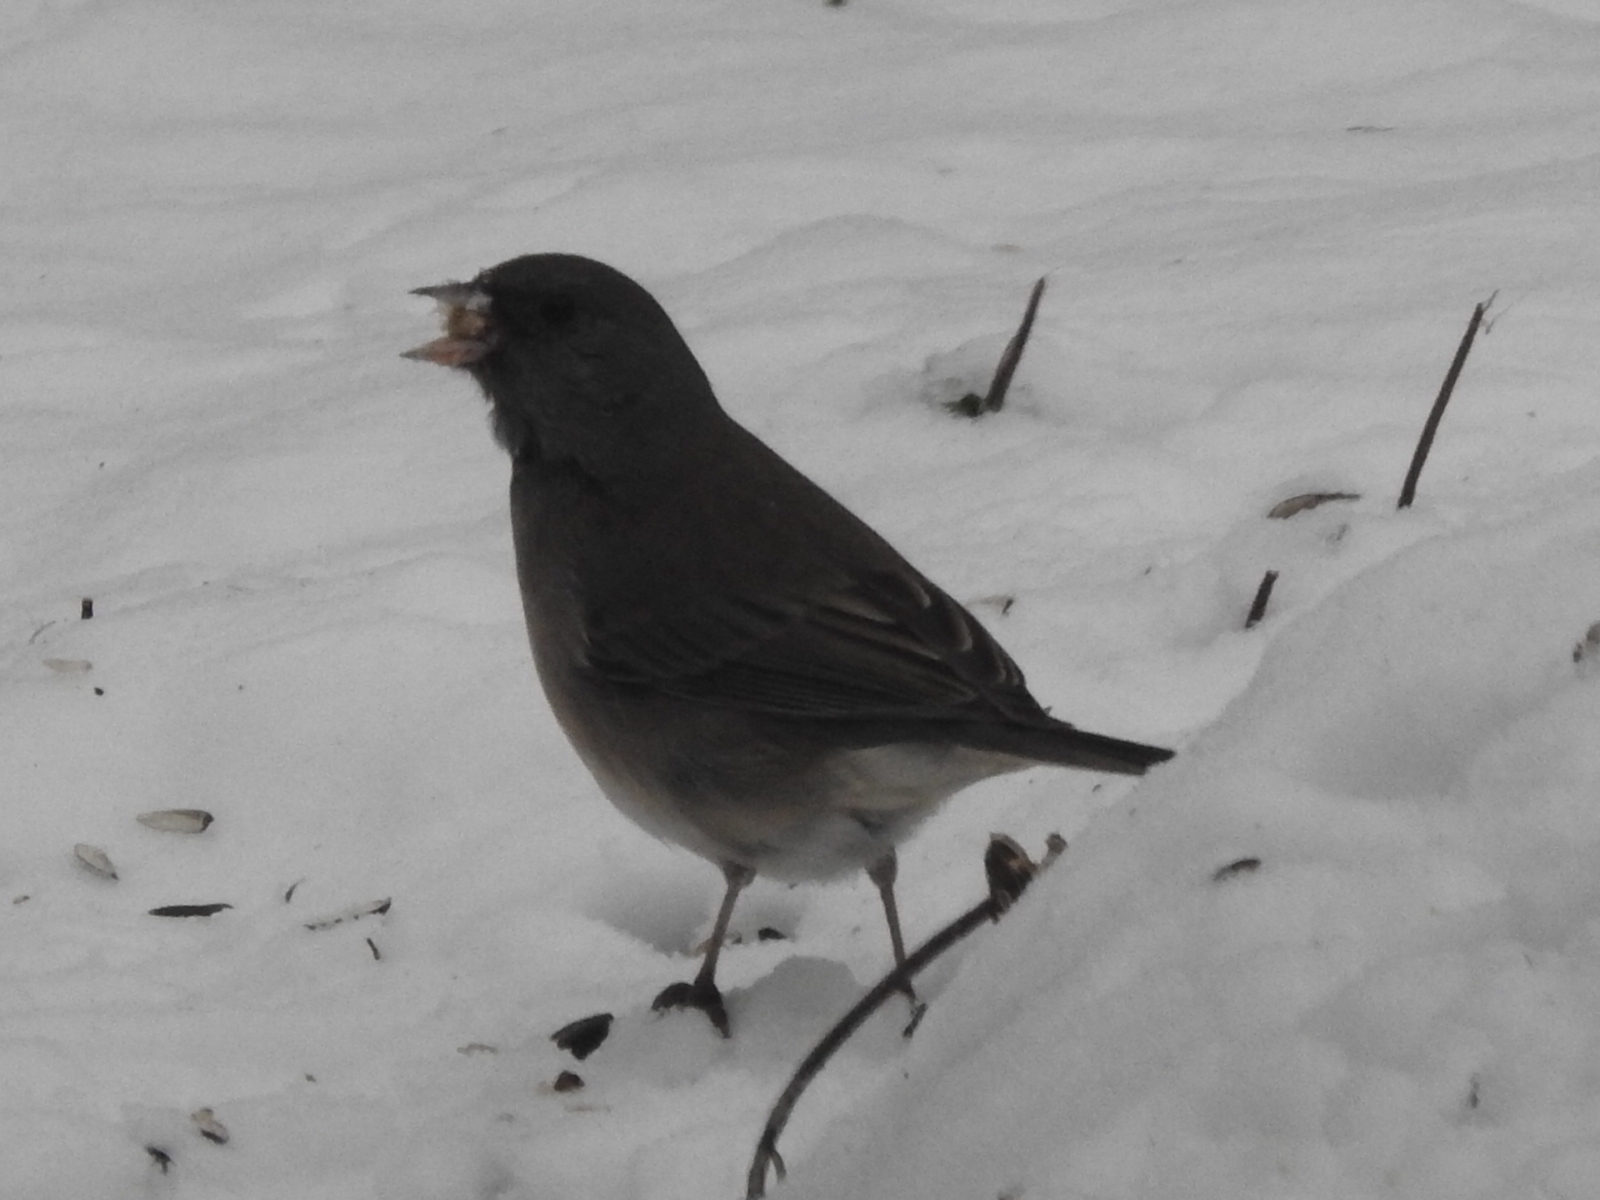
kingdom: Animalia
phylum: Chordata
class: Aves
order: Passeriformes
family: Passerellidae
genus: Junco
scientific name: Junco hyemalis
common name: Dark-eyed junco
